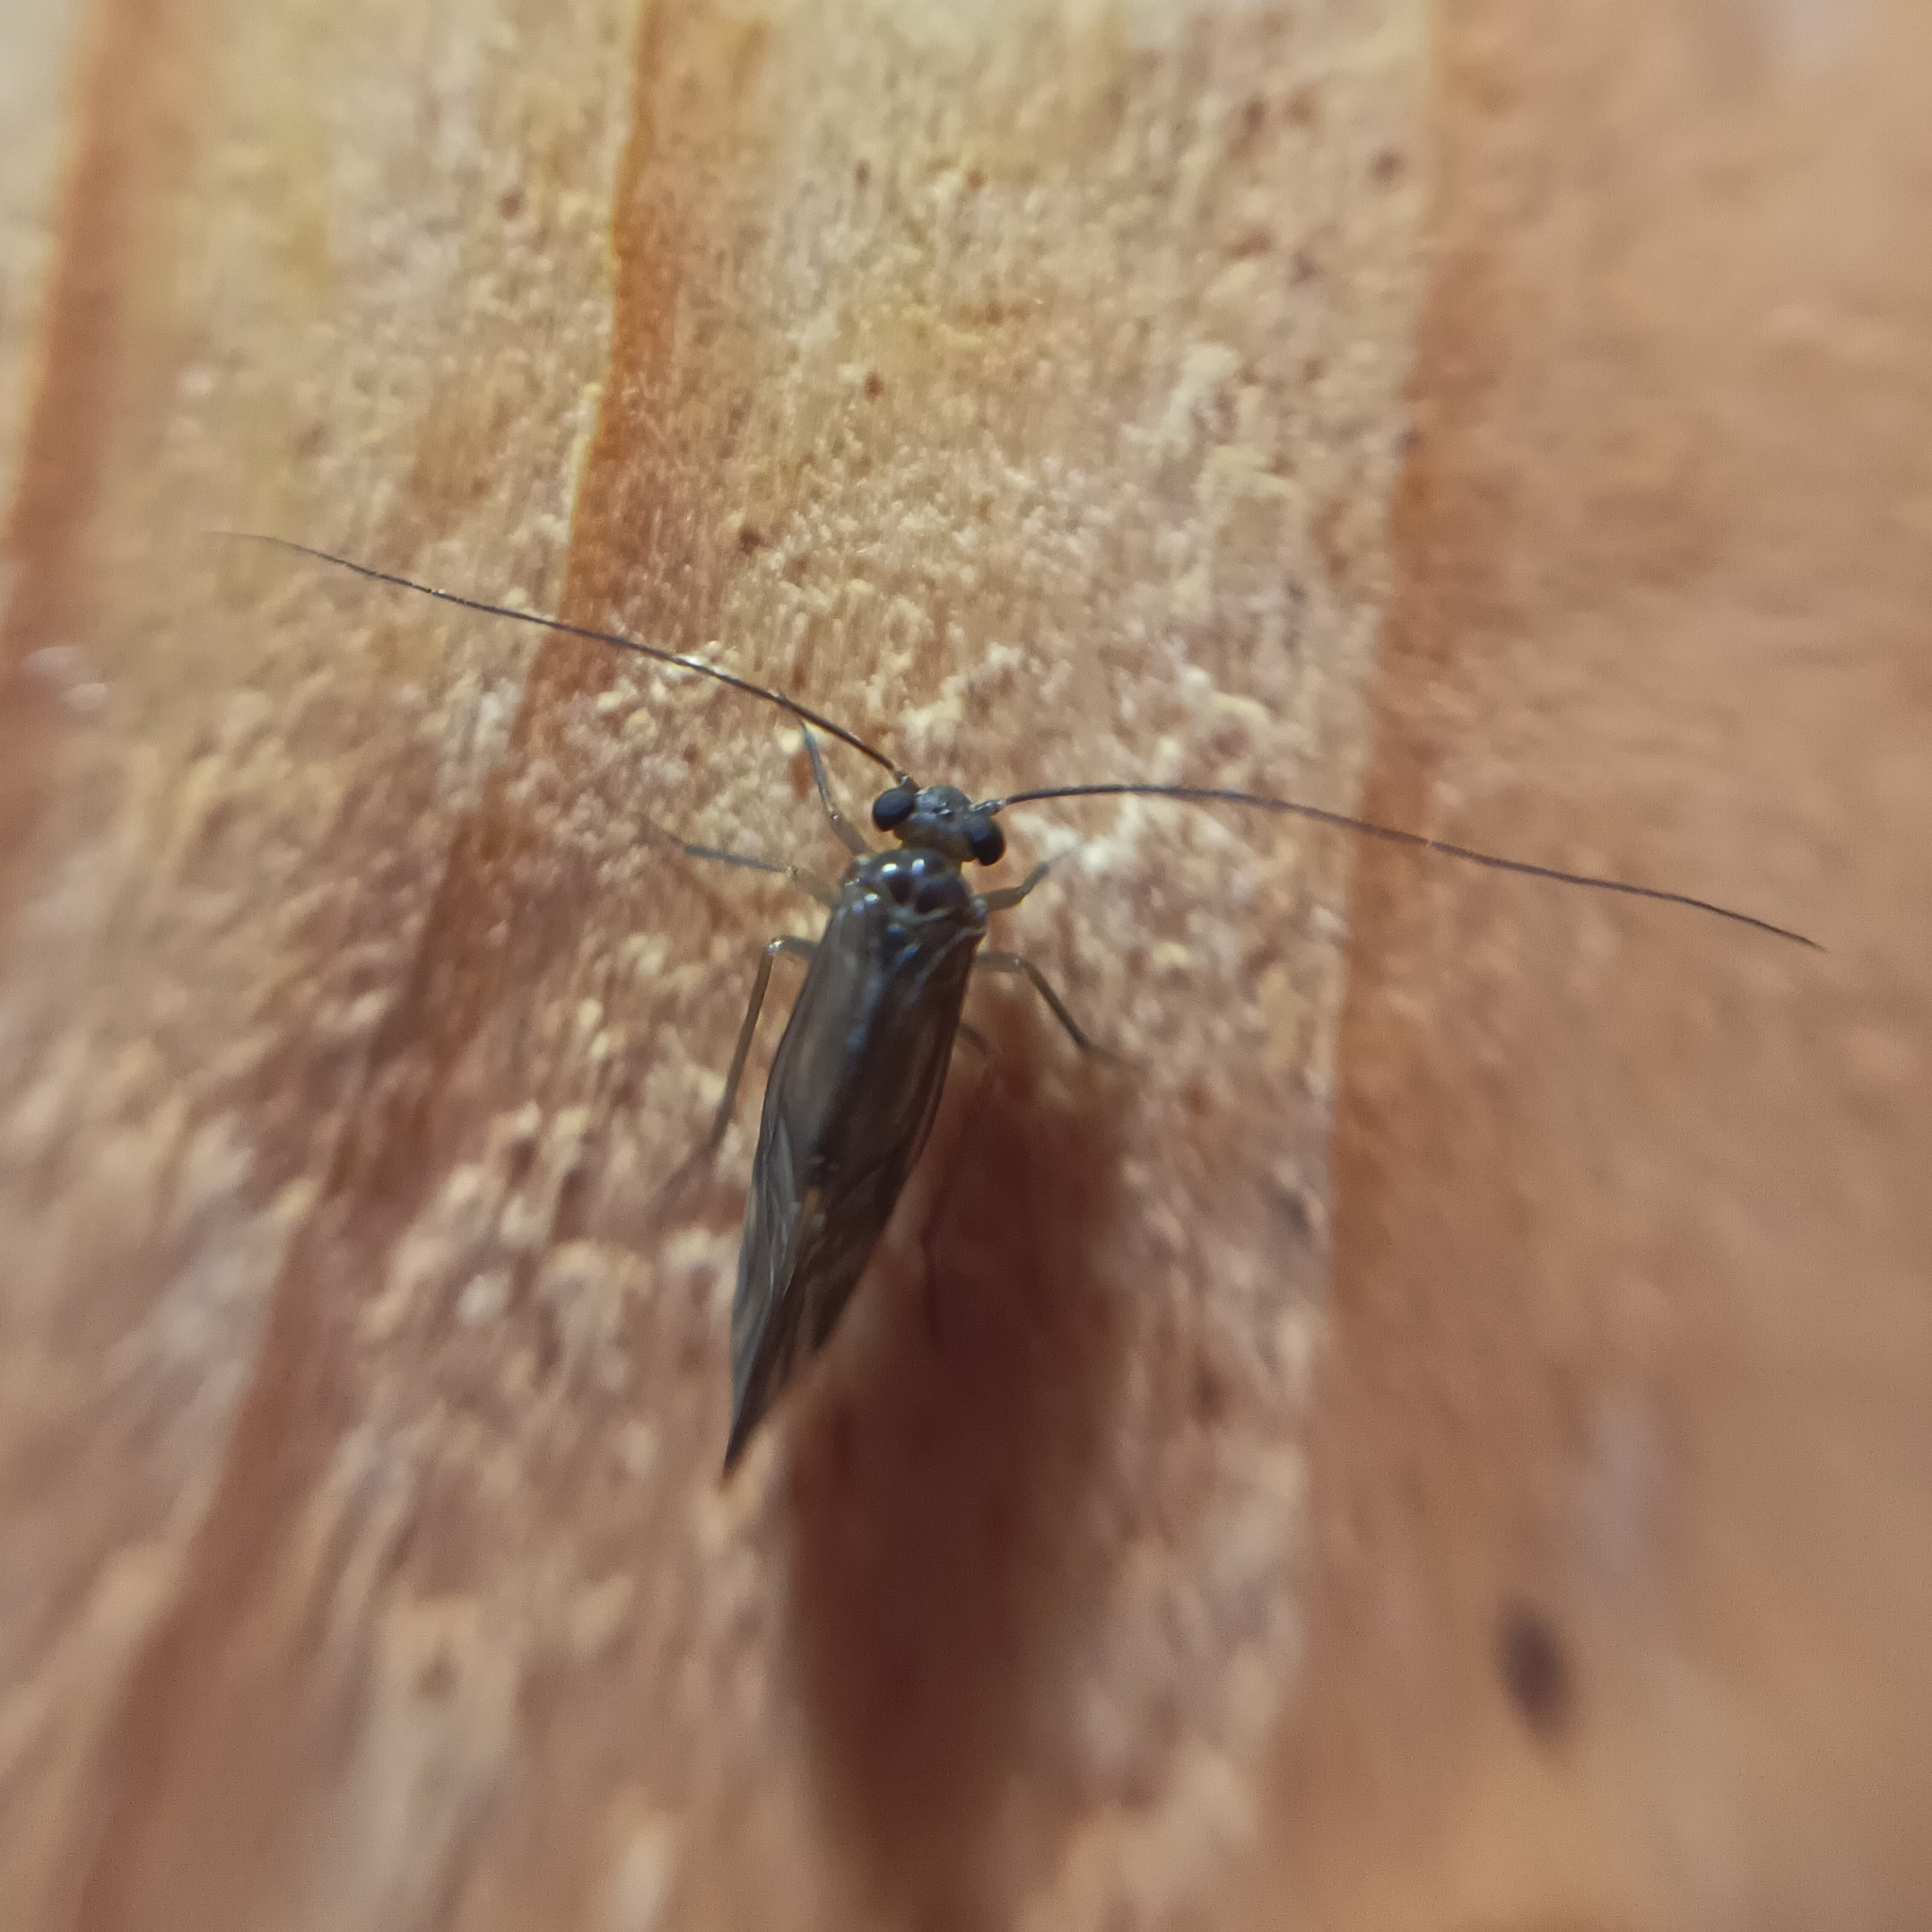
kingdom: Animalia
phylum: Arthropoda
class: Insecta
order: Psocodea
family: Psocidae
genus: Metylophorus
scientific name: Metylophorus nebulosus
